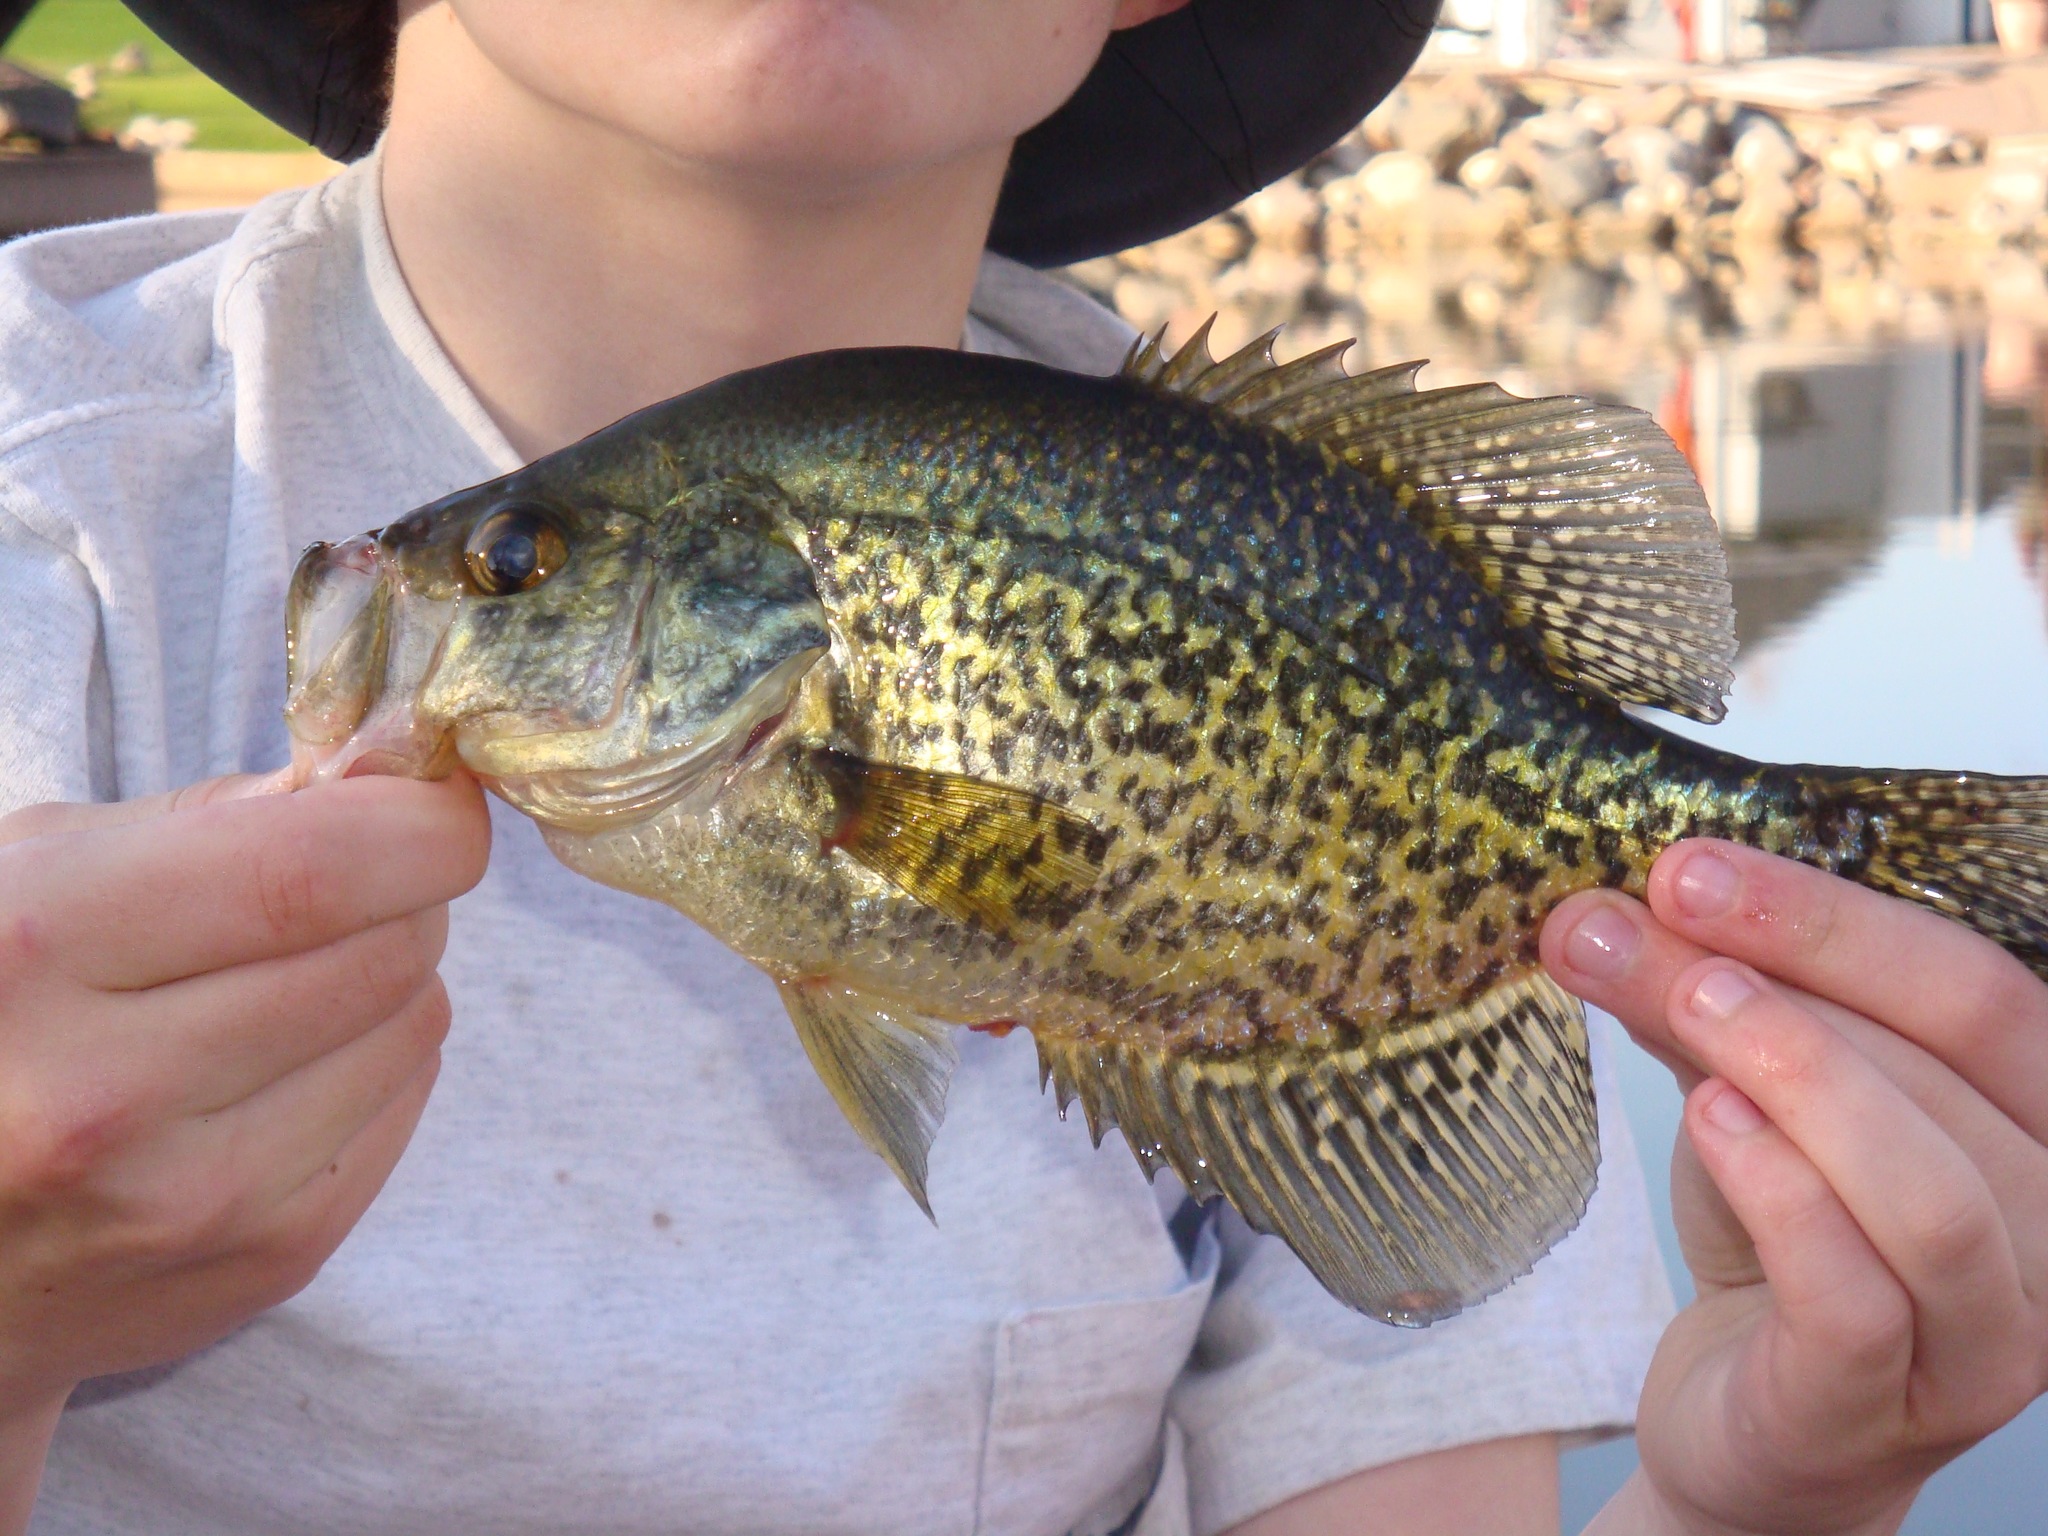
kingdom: Animalia
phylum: Chordata
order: Perciformes
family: Centrarchidae
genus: Pomoxis
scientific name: Pomoxis nigromaculatus
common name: Black crappie
